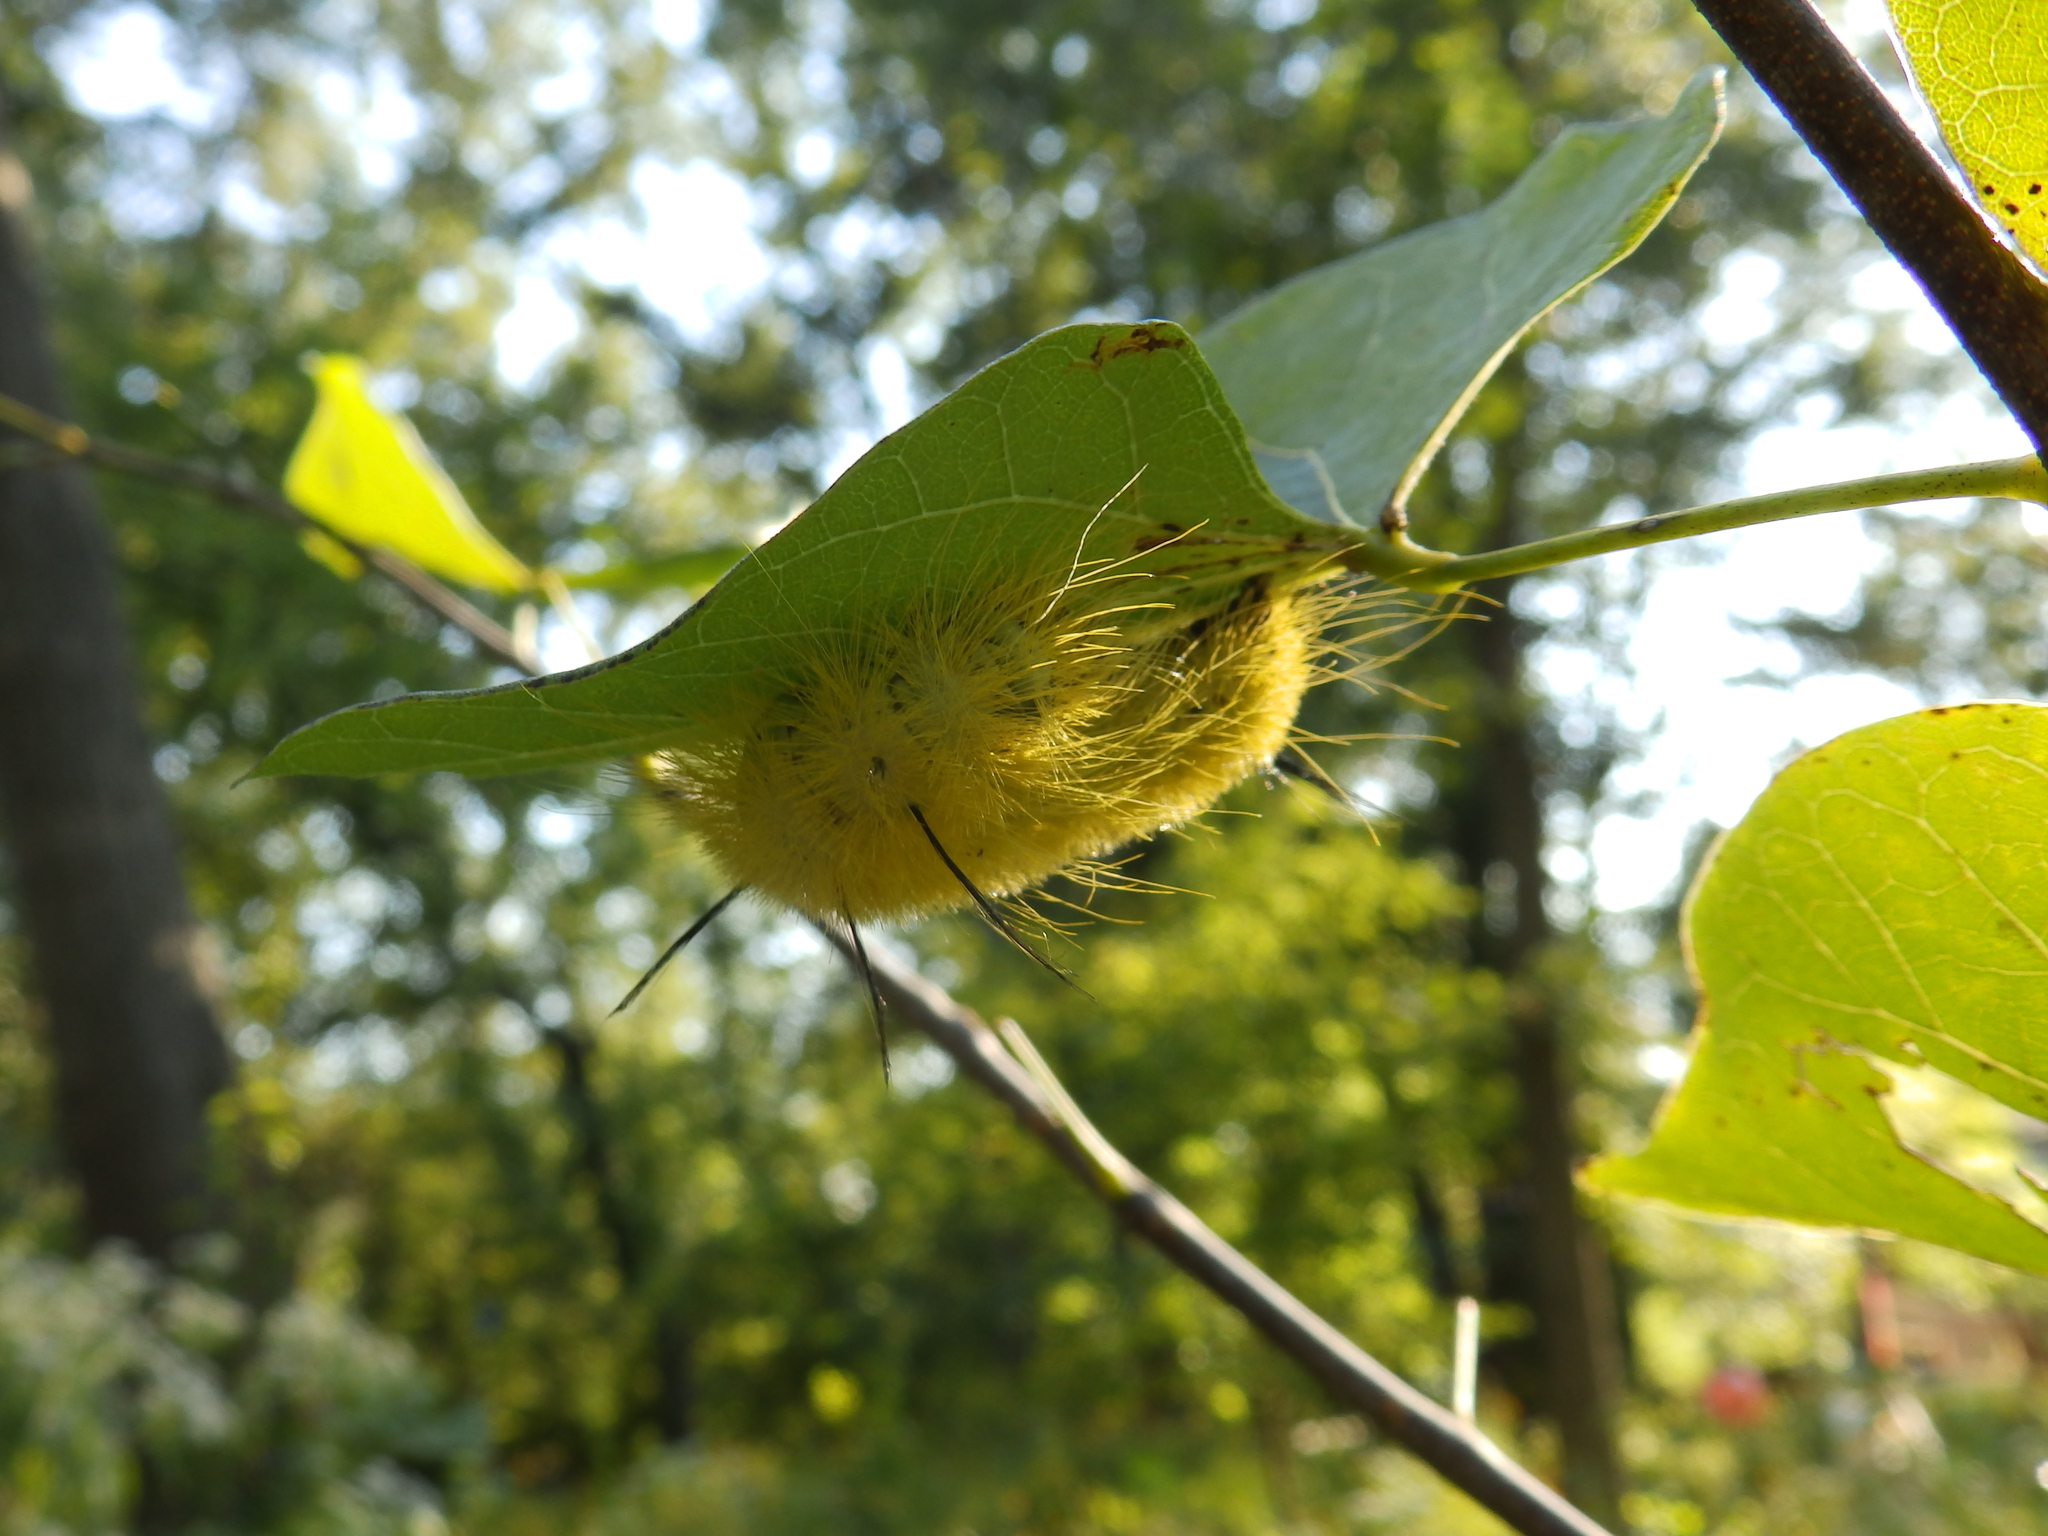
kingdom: Animalia
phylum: Arthropoda
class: Insecta
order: Lepidoptera
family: Noctuidae
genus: Acronicta
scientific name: Acronicta americana
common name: American dagger
